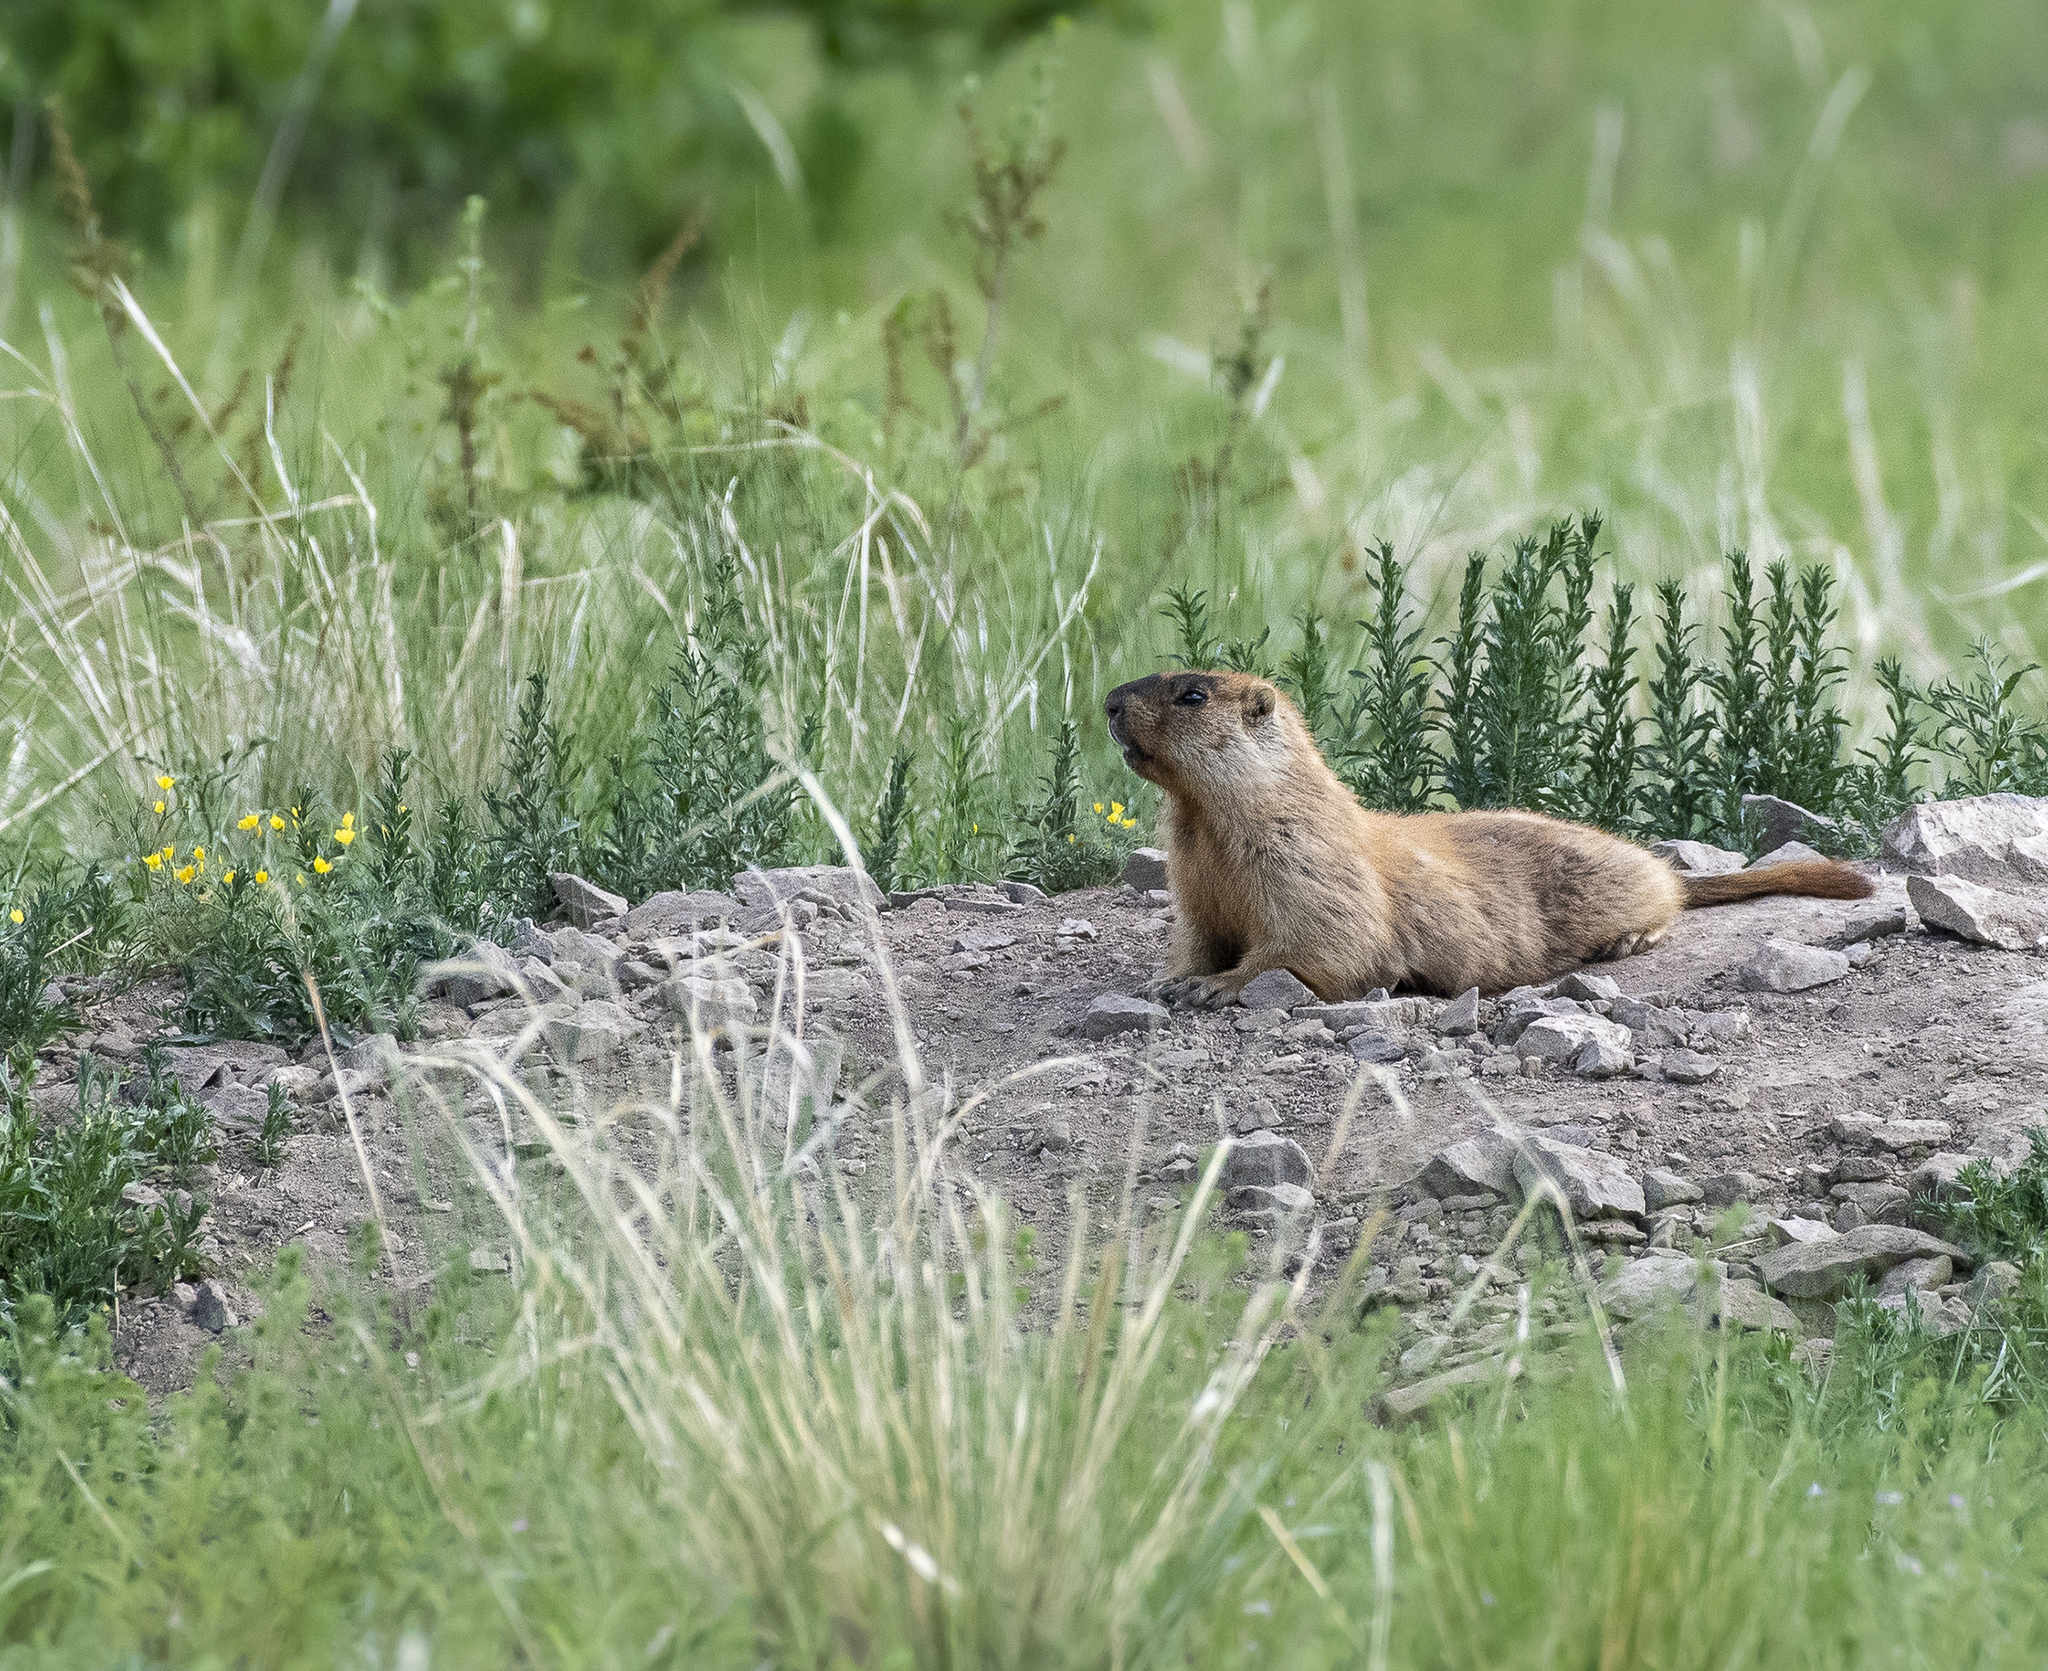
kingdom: Animalia
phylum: Chordata
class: Mammalia
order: Rodentia
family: Sciuridae
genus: Marmota
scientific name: Marmota sibirica
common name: Tarbagan marmot
